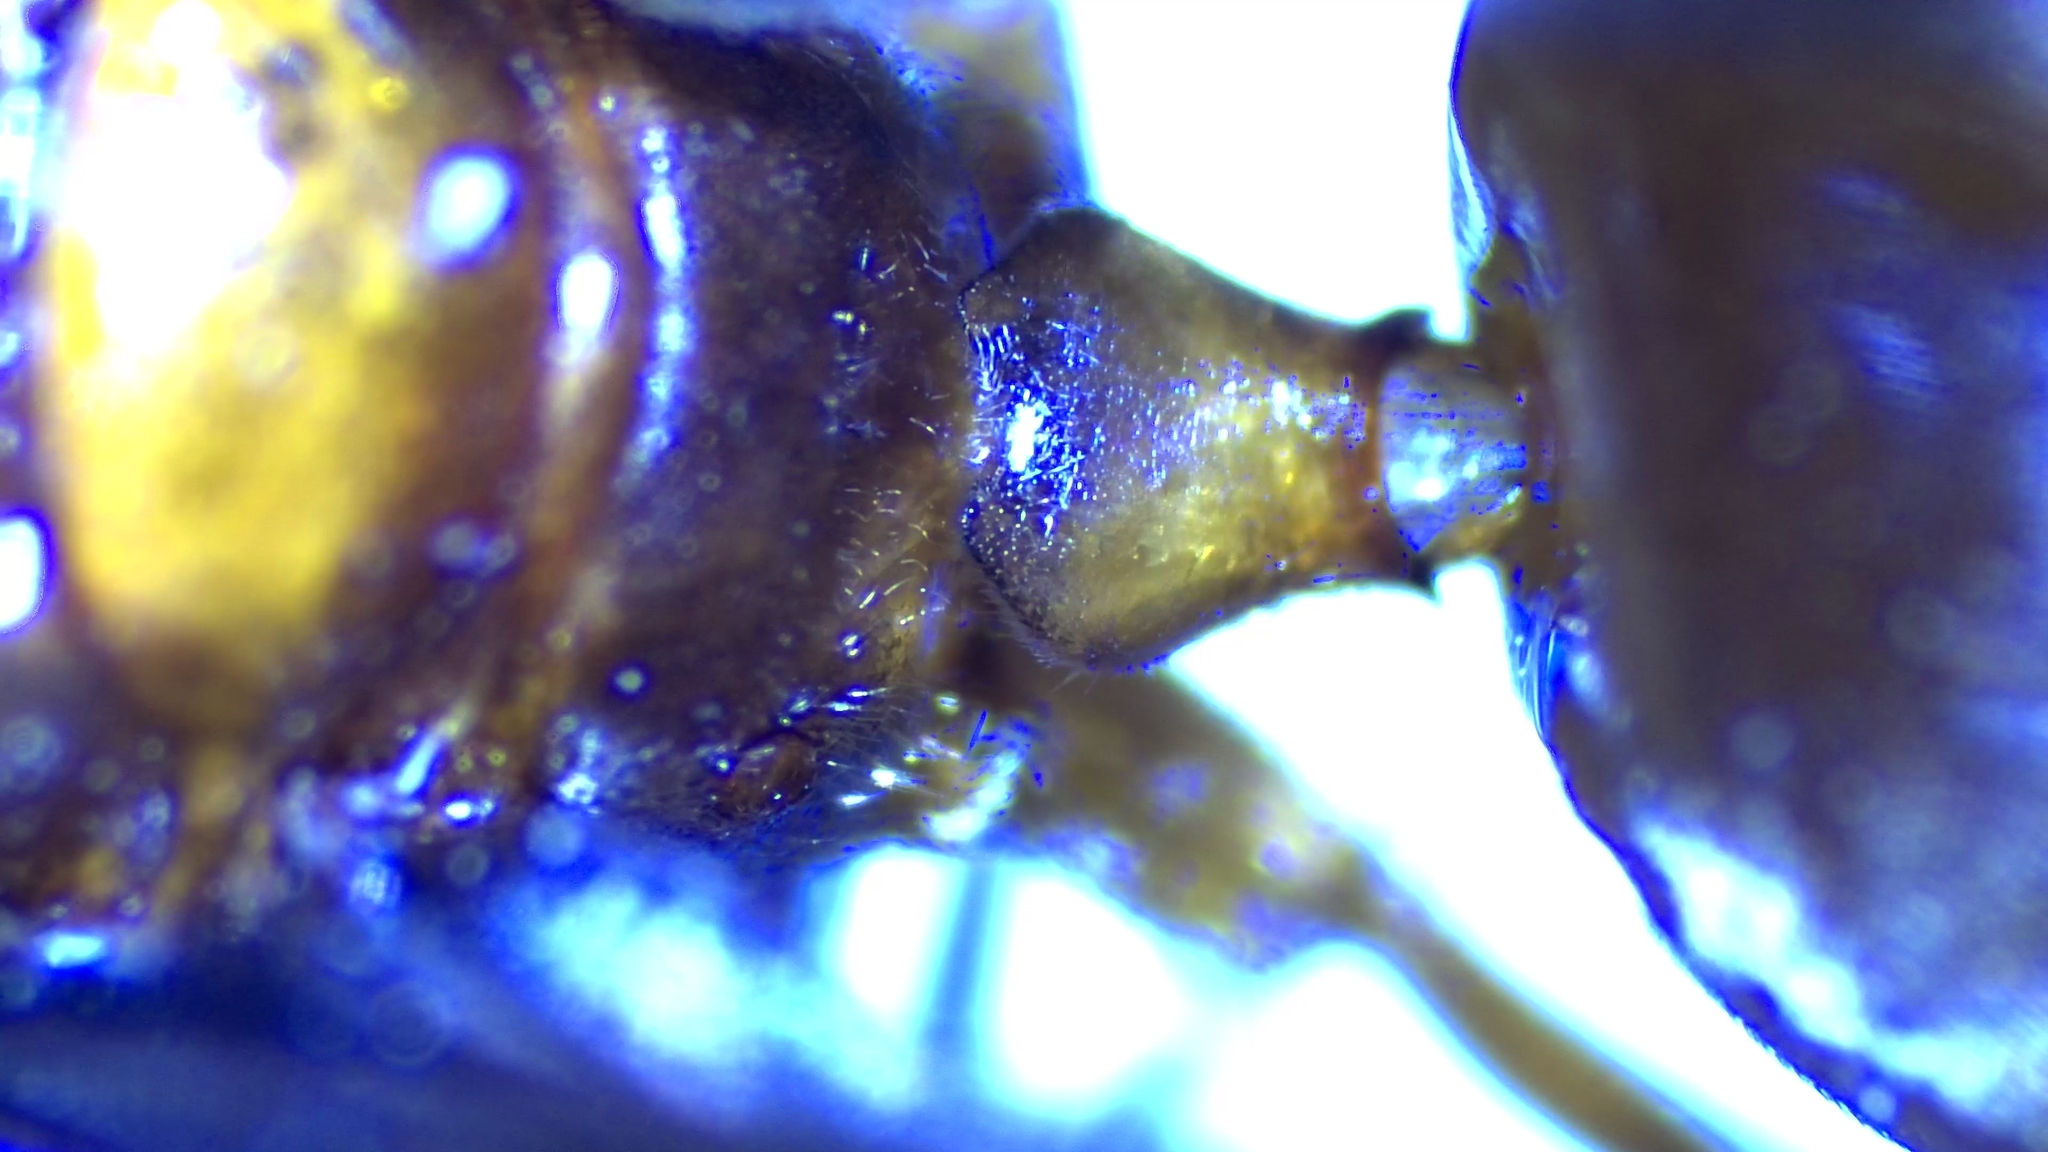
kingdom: Animalia
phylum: Arthropoda
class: Insecta
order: Hymenoptera
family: Formicidae
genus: Prenolepis
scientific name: Prenolepis imparis
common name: Small honey ant
